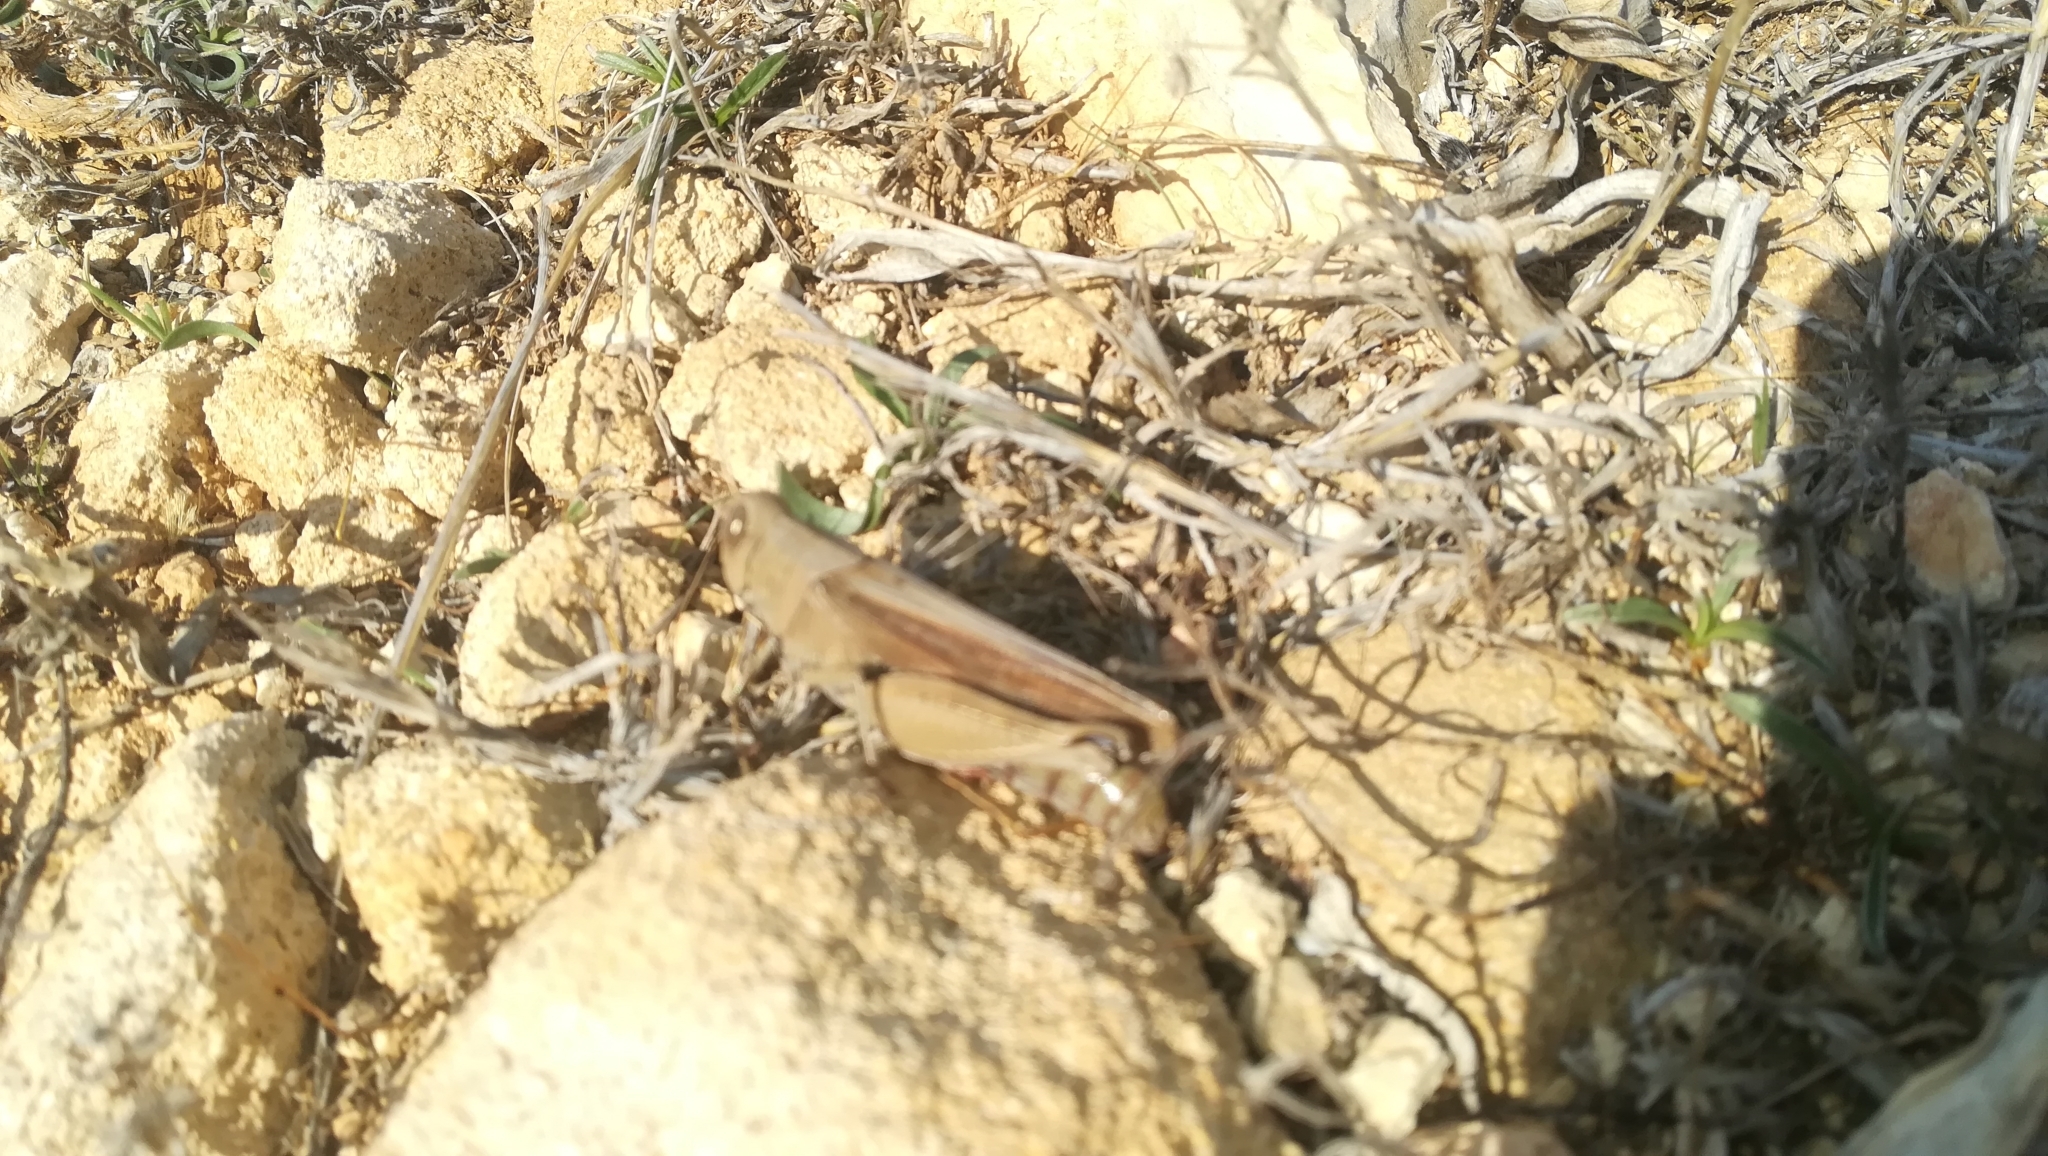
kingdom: Animalia
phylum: Arthropoda
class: Insecta
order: Orthoptera
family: Acrididae
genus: Calliptamus
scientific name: Calliptamus barbarus
